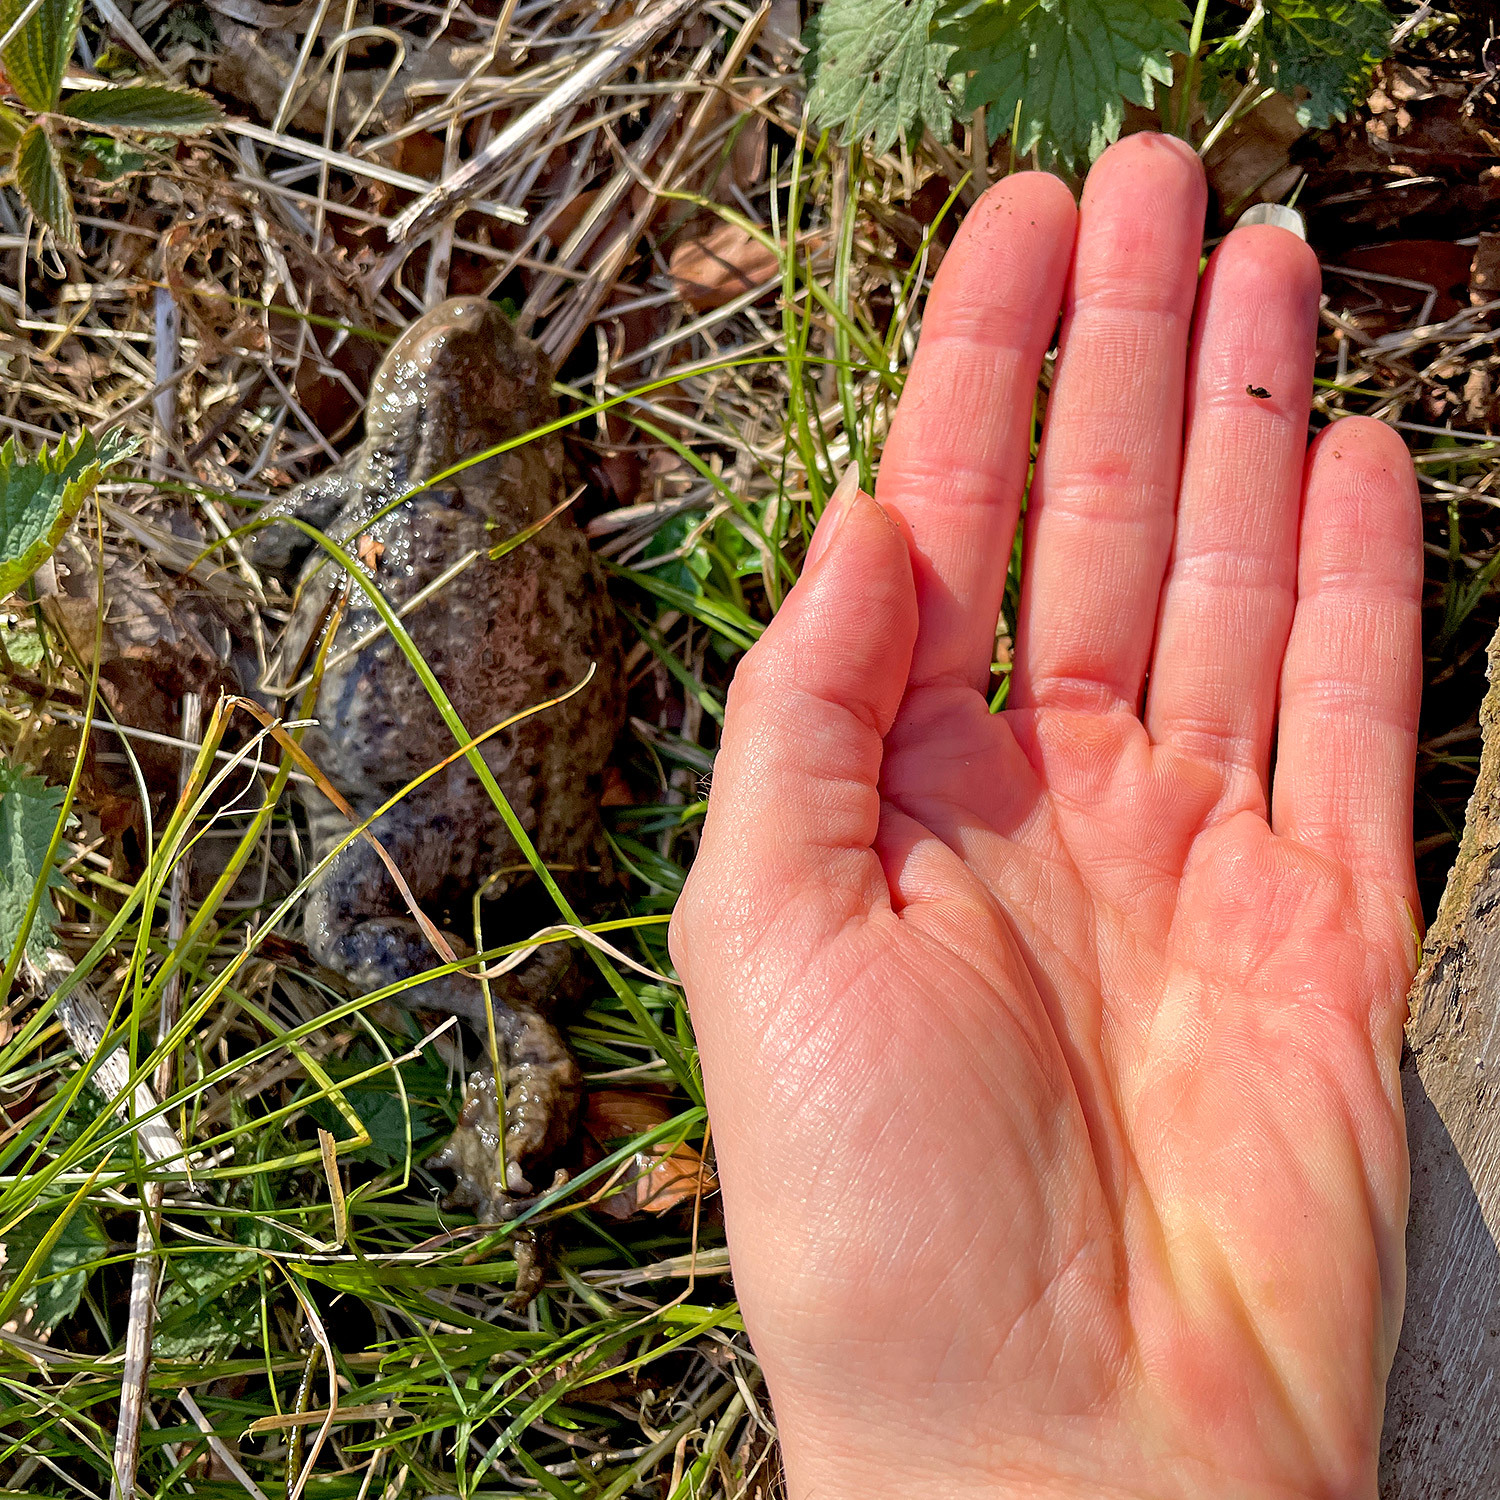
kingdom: Animalia
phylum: Chordata
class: Amphibia
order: Anura
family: Bufonidae
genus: Bufo
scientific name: Bufo bufo
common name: Common toad
